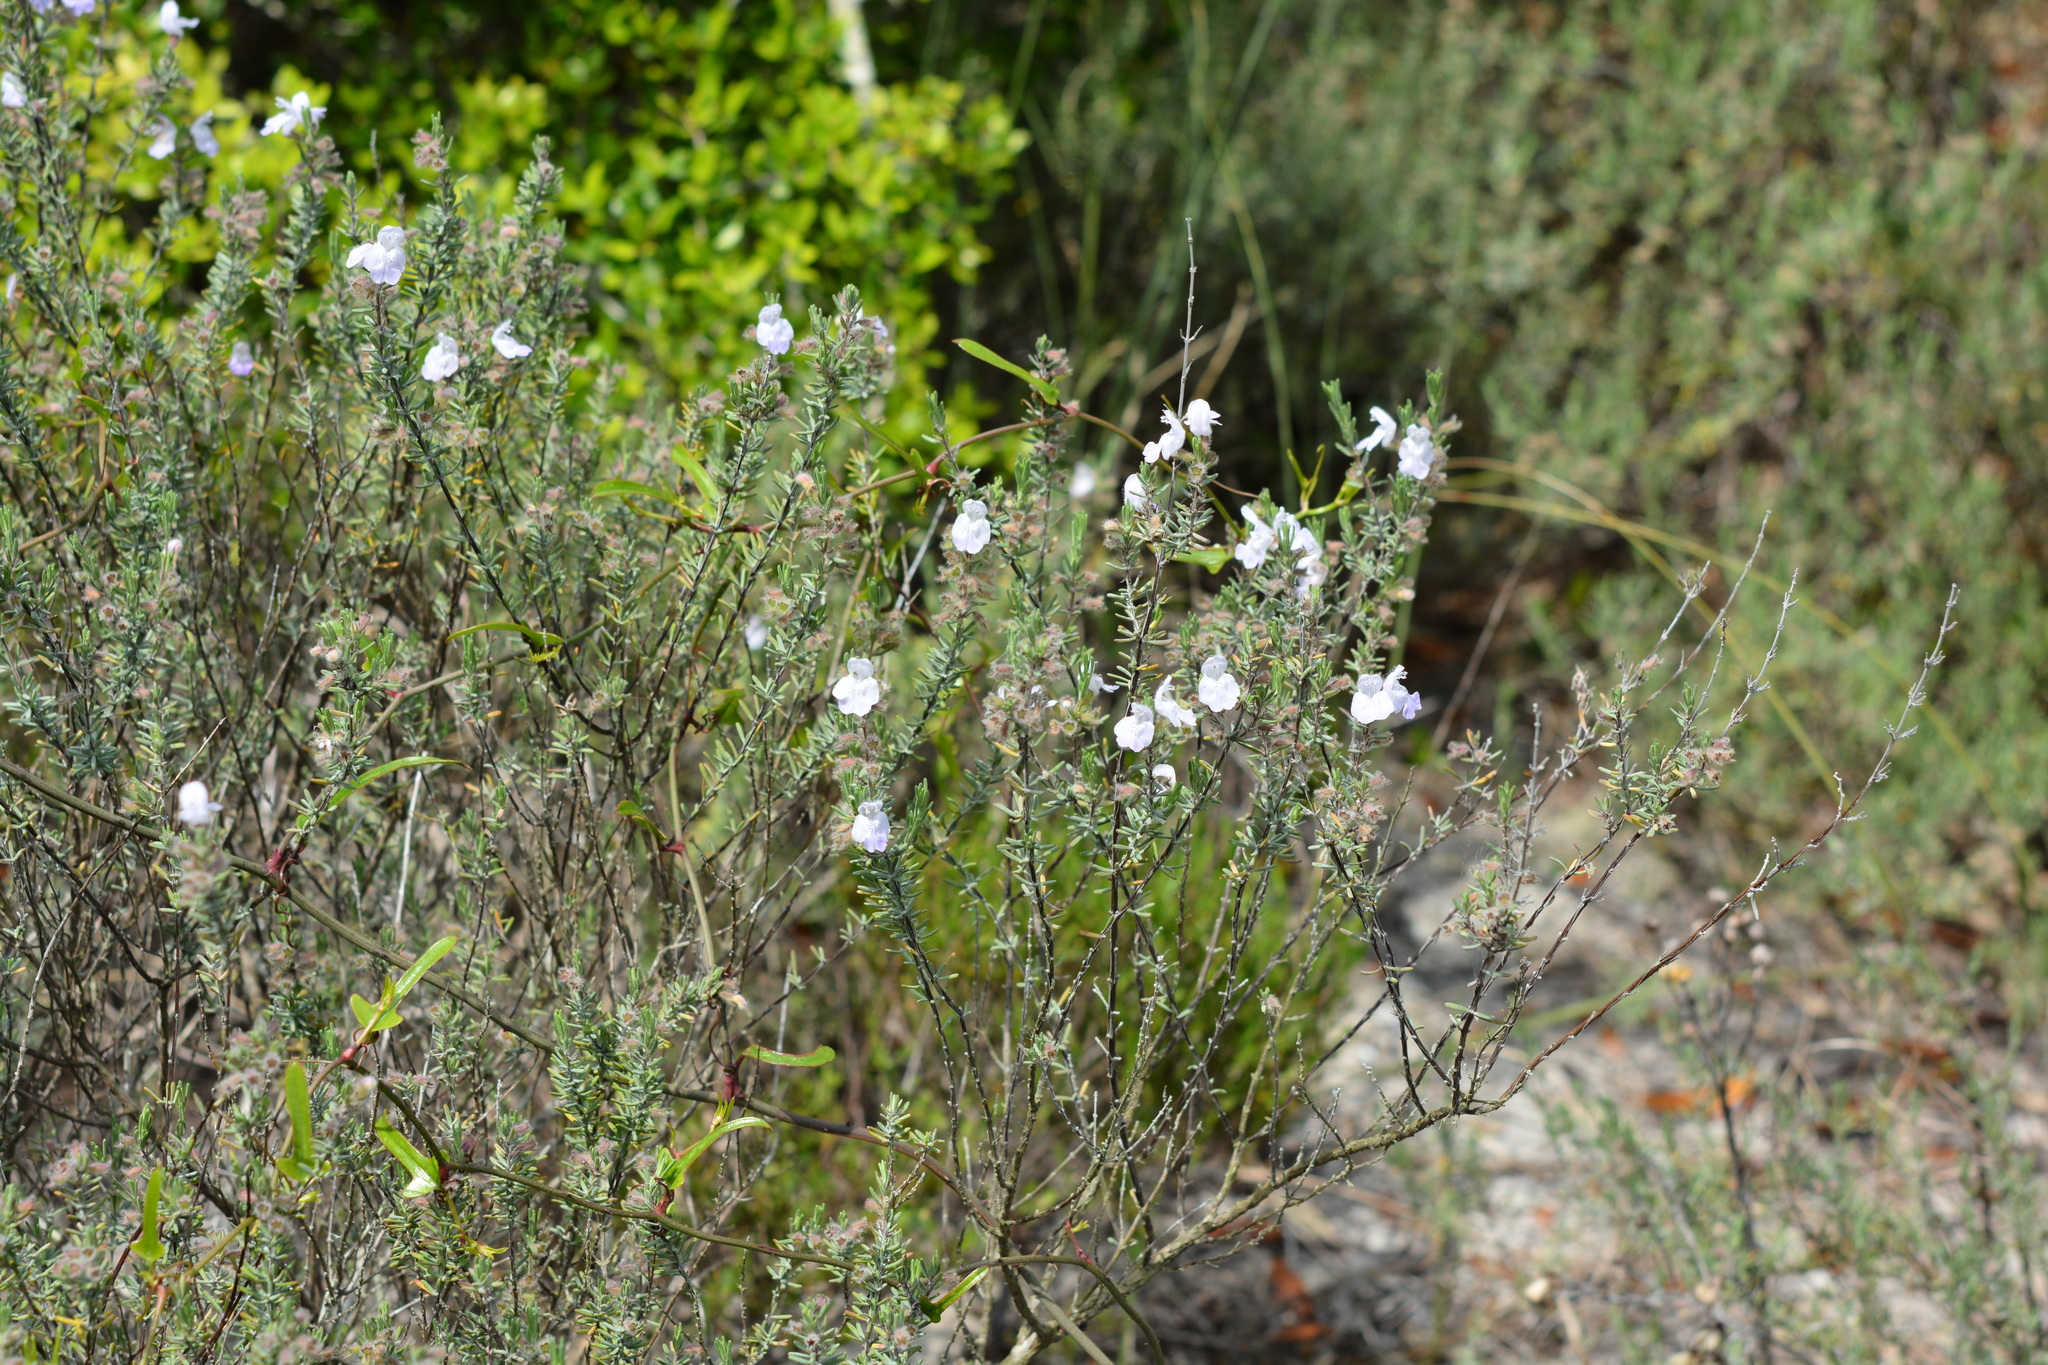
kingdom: Plantae
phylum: Tracheophyta
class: Magnoliopsida
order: Lamiales
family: Lamiaceae
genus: Conradina
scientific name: Conradina canescens
